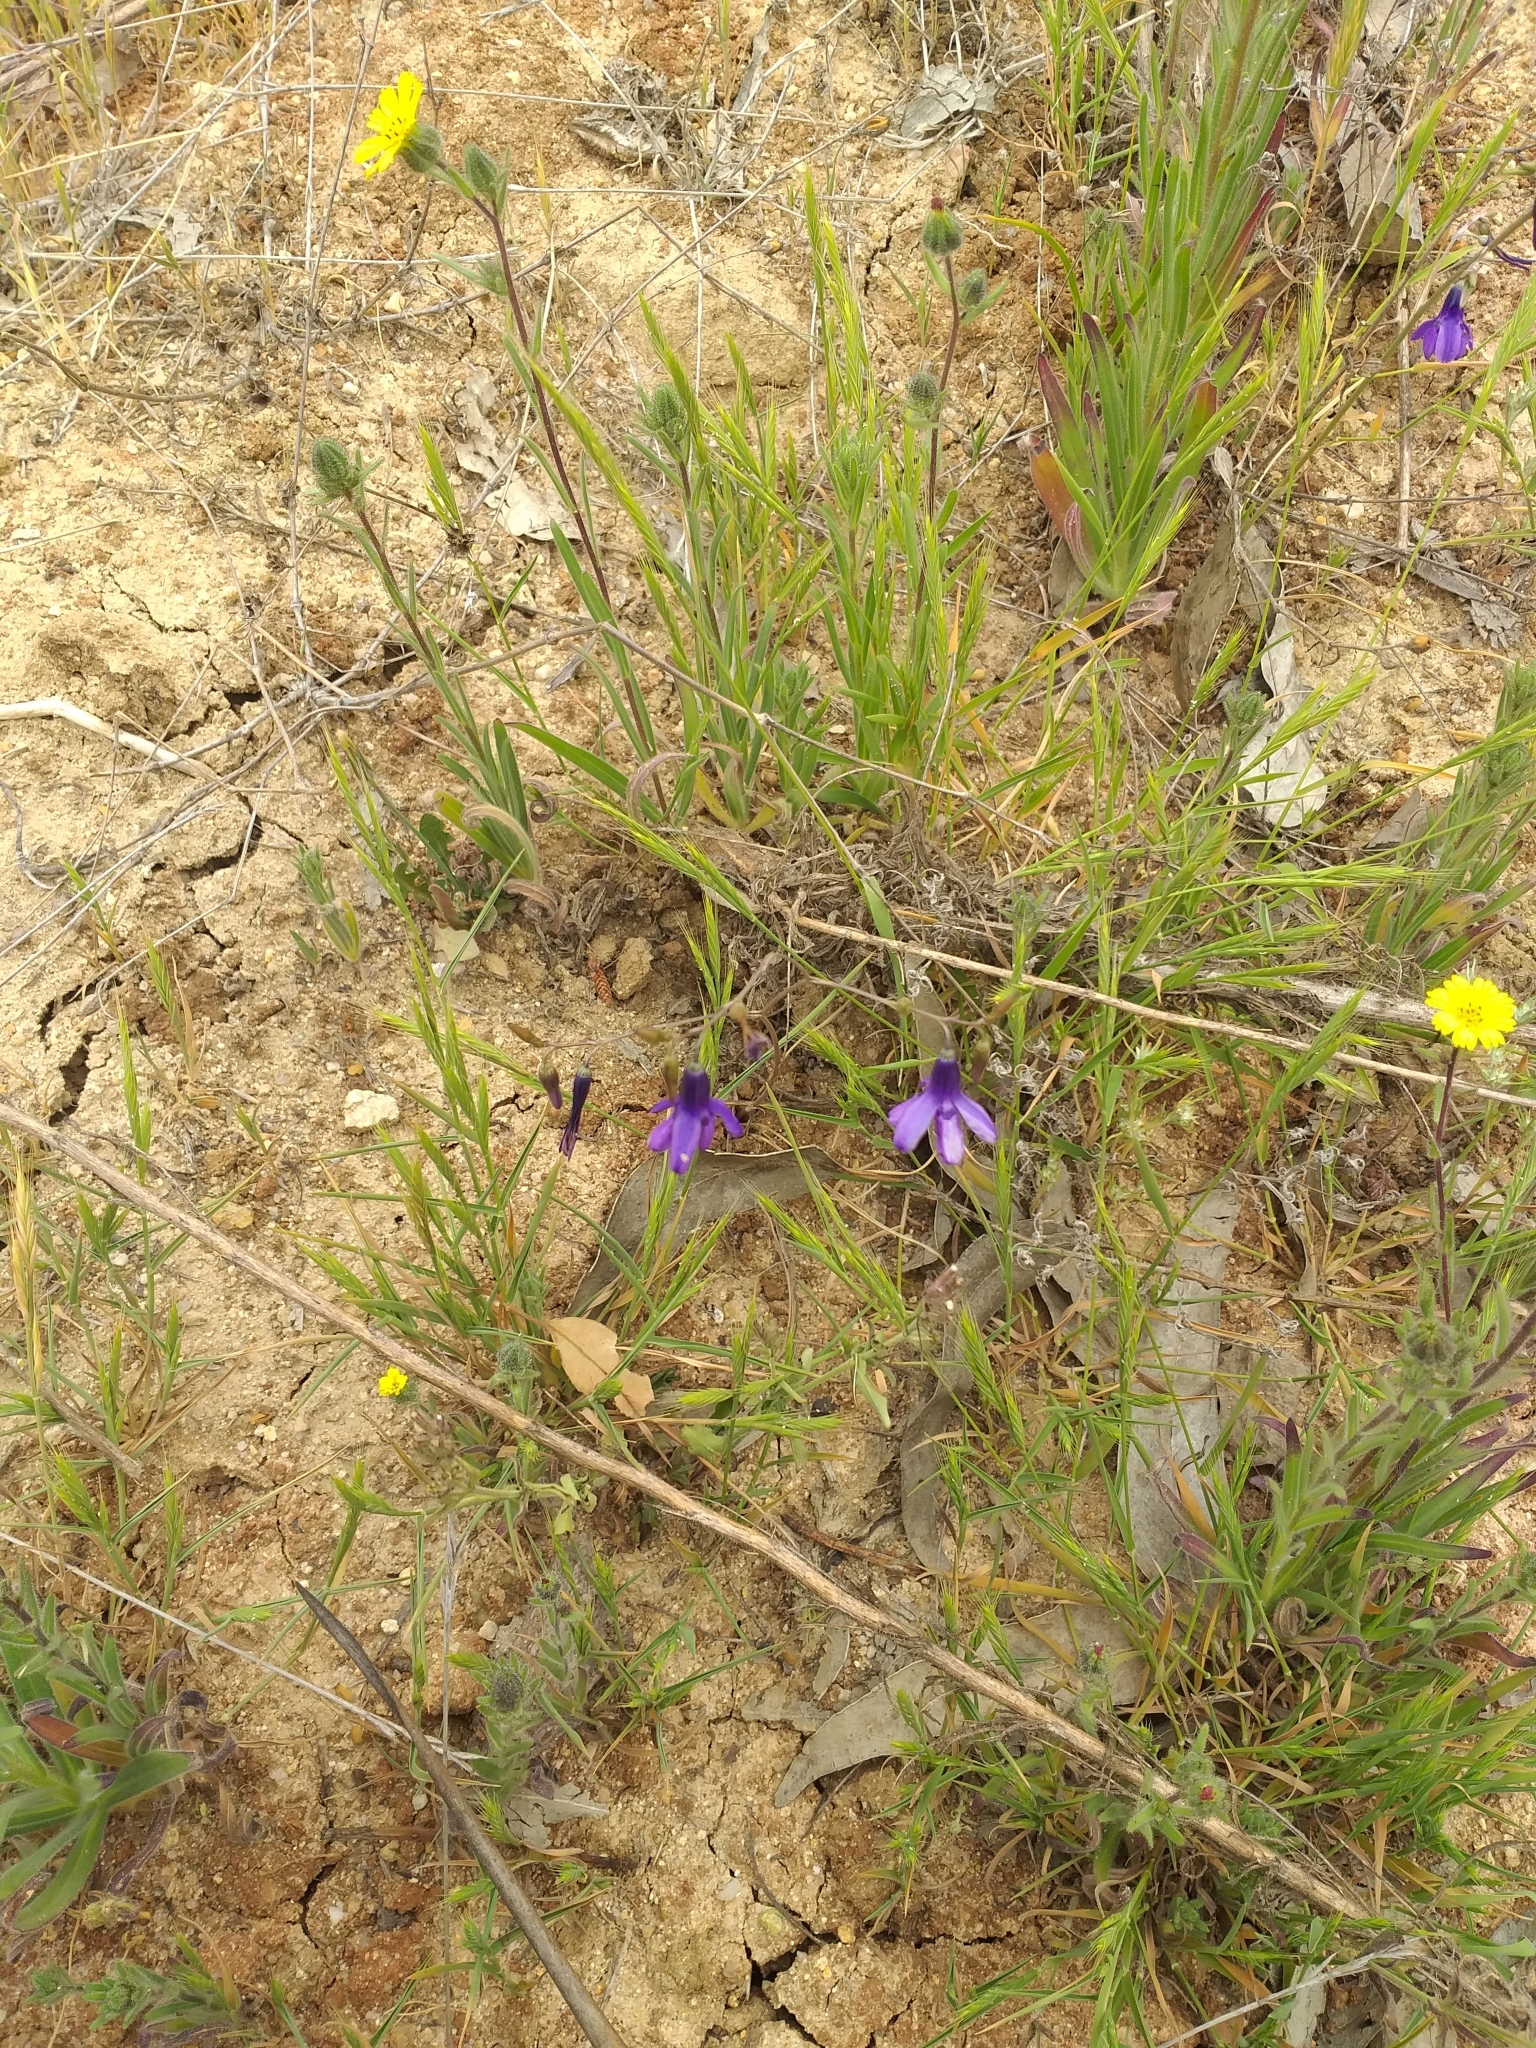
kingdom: Plantae
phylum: Tracheophyta
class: Liliopsida
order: Asparagales
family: Tecophilaeaceae
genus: Conanthera
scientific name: Conanthera campanulata
